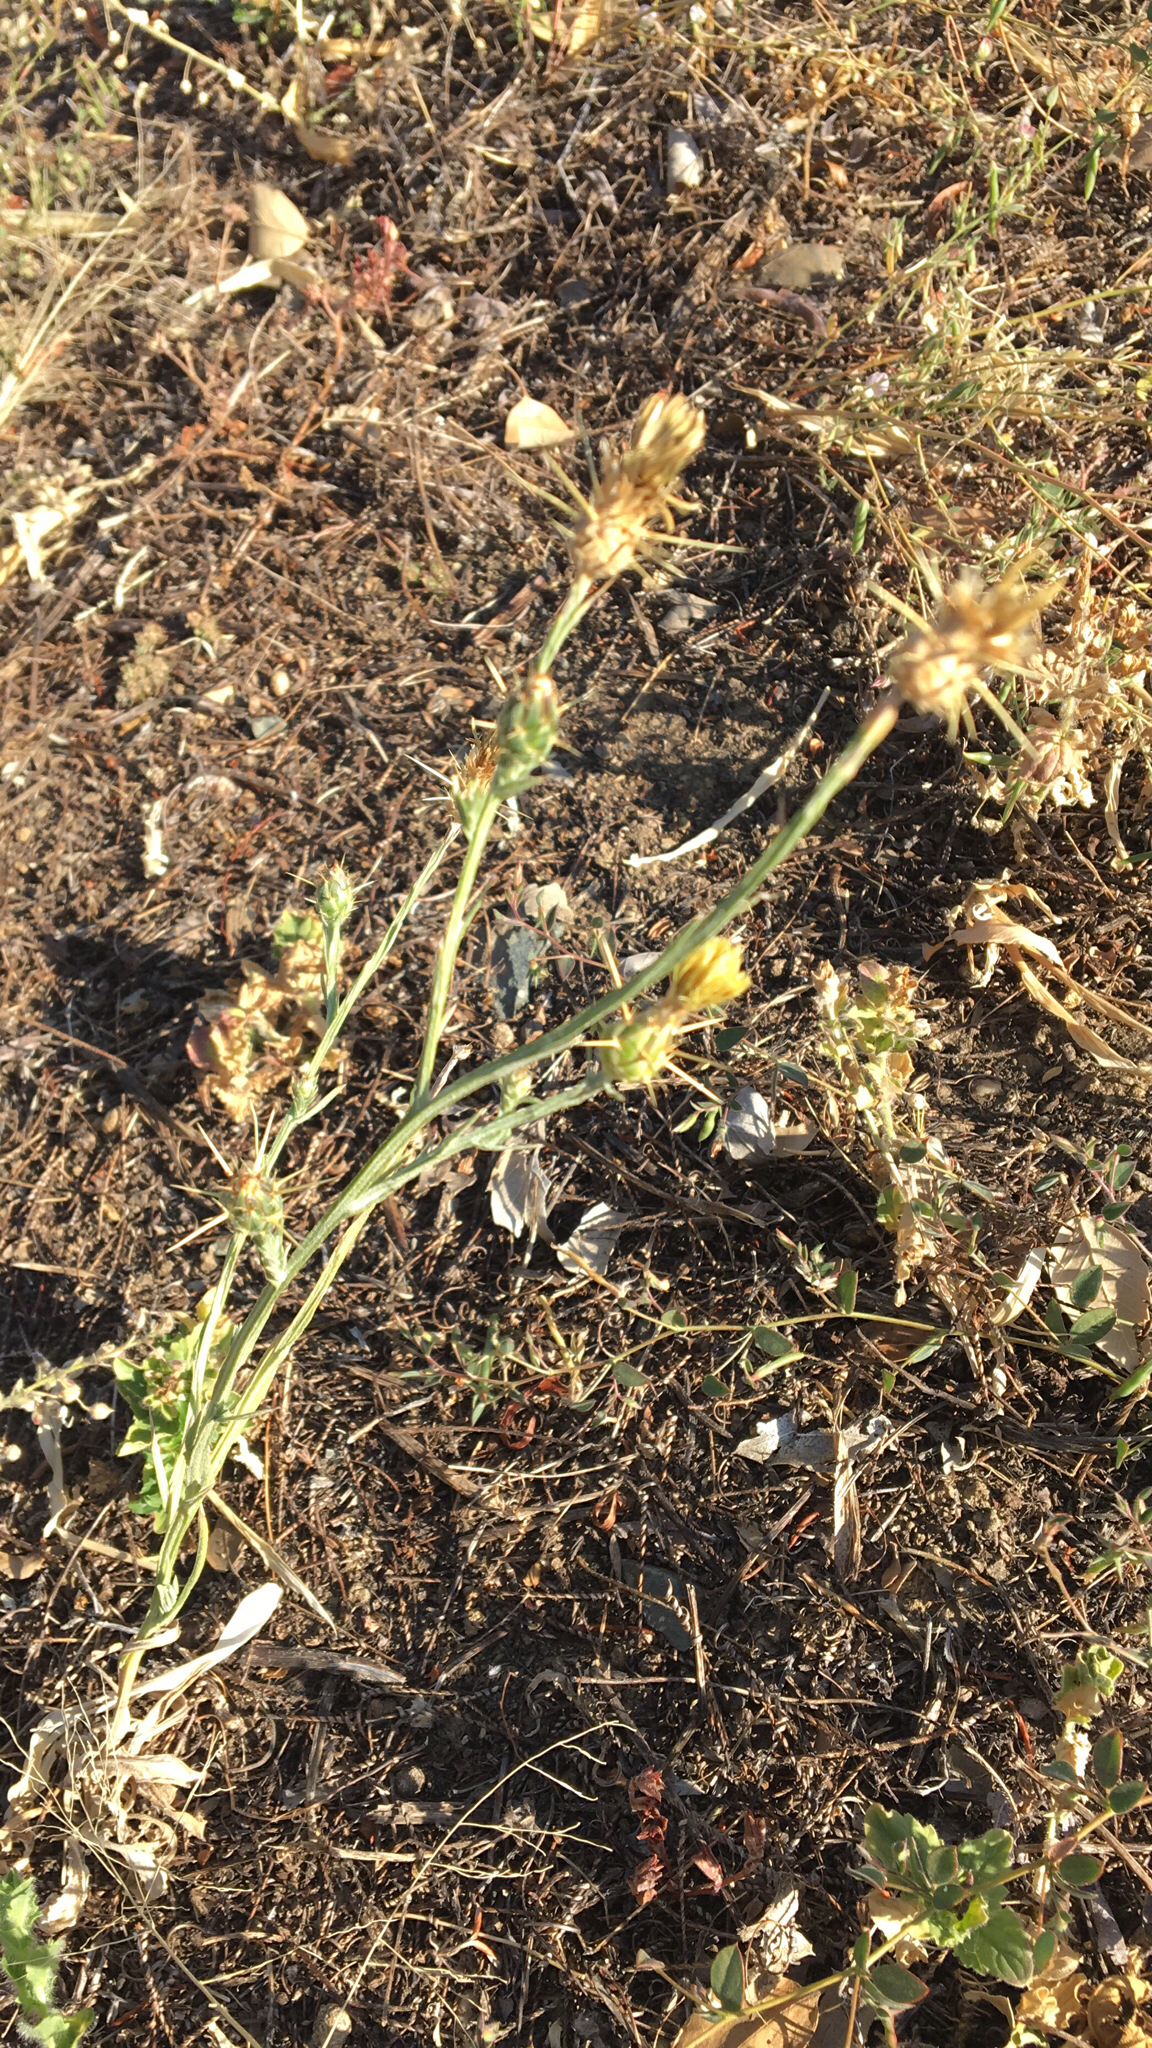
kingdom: Plantae
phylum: Tracheophyta
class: Magnoliopsida
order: Asterales
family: Asteraceae
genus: Centaurea
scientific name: Centaurea solstitialis
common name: Yellow star-thistle
